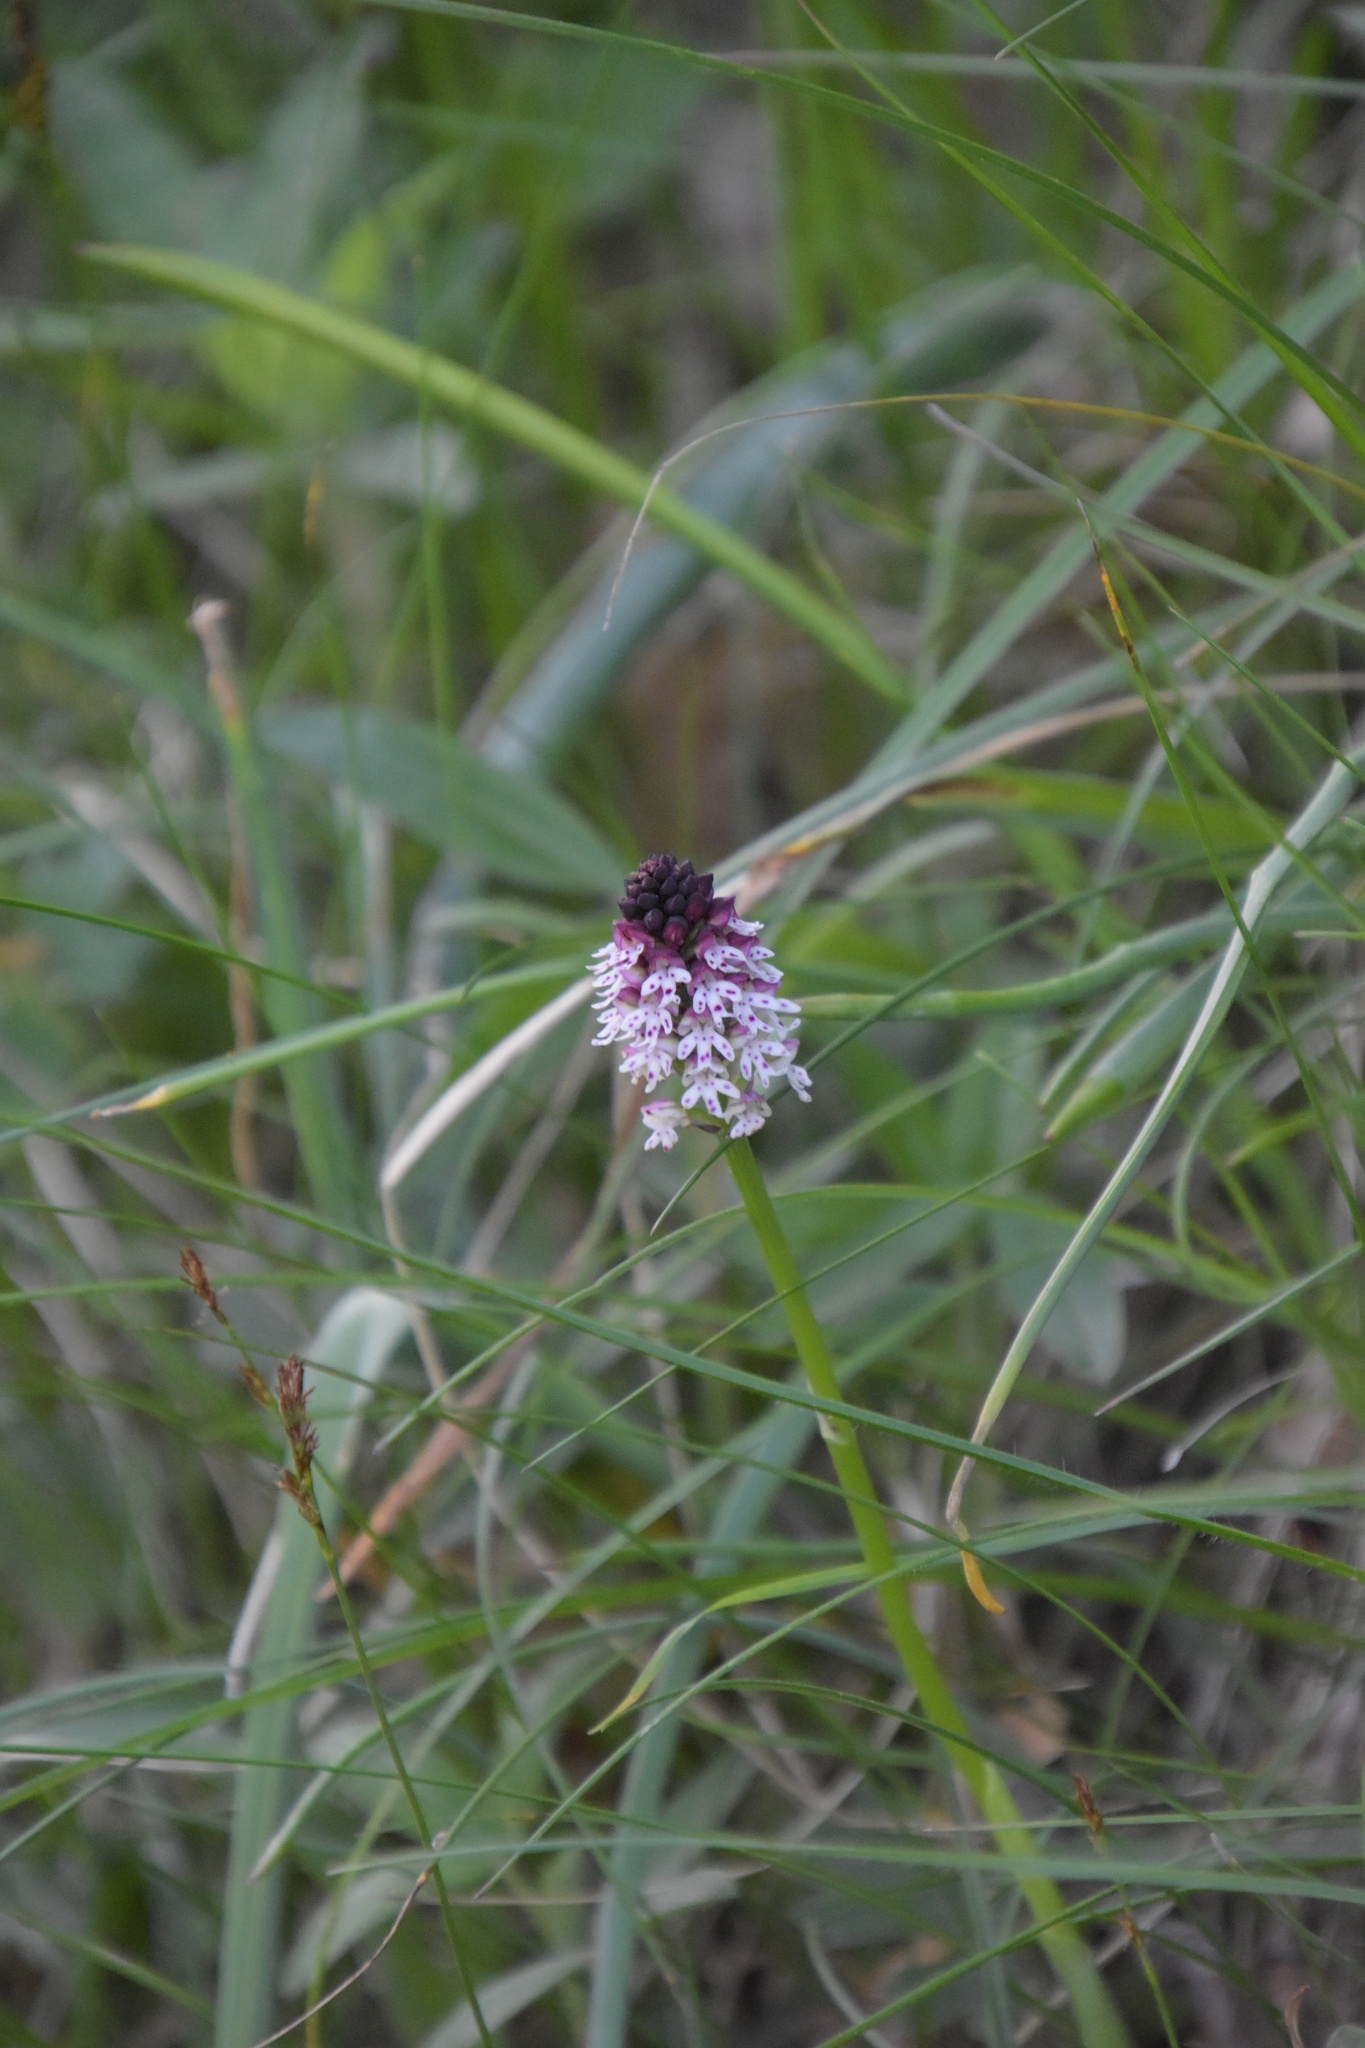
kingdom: Plantae
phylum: Tracheophyta
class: Liliopsida
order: Asparagales
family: Orchidaceae
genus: Neotinea
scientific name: Neotinea ustulata
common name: Burnt orchid
